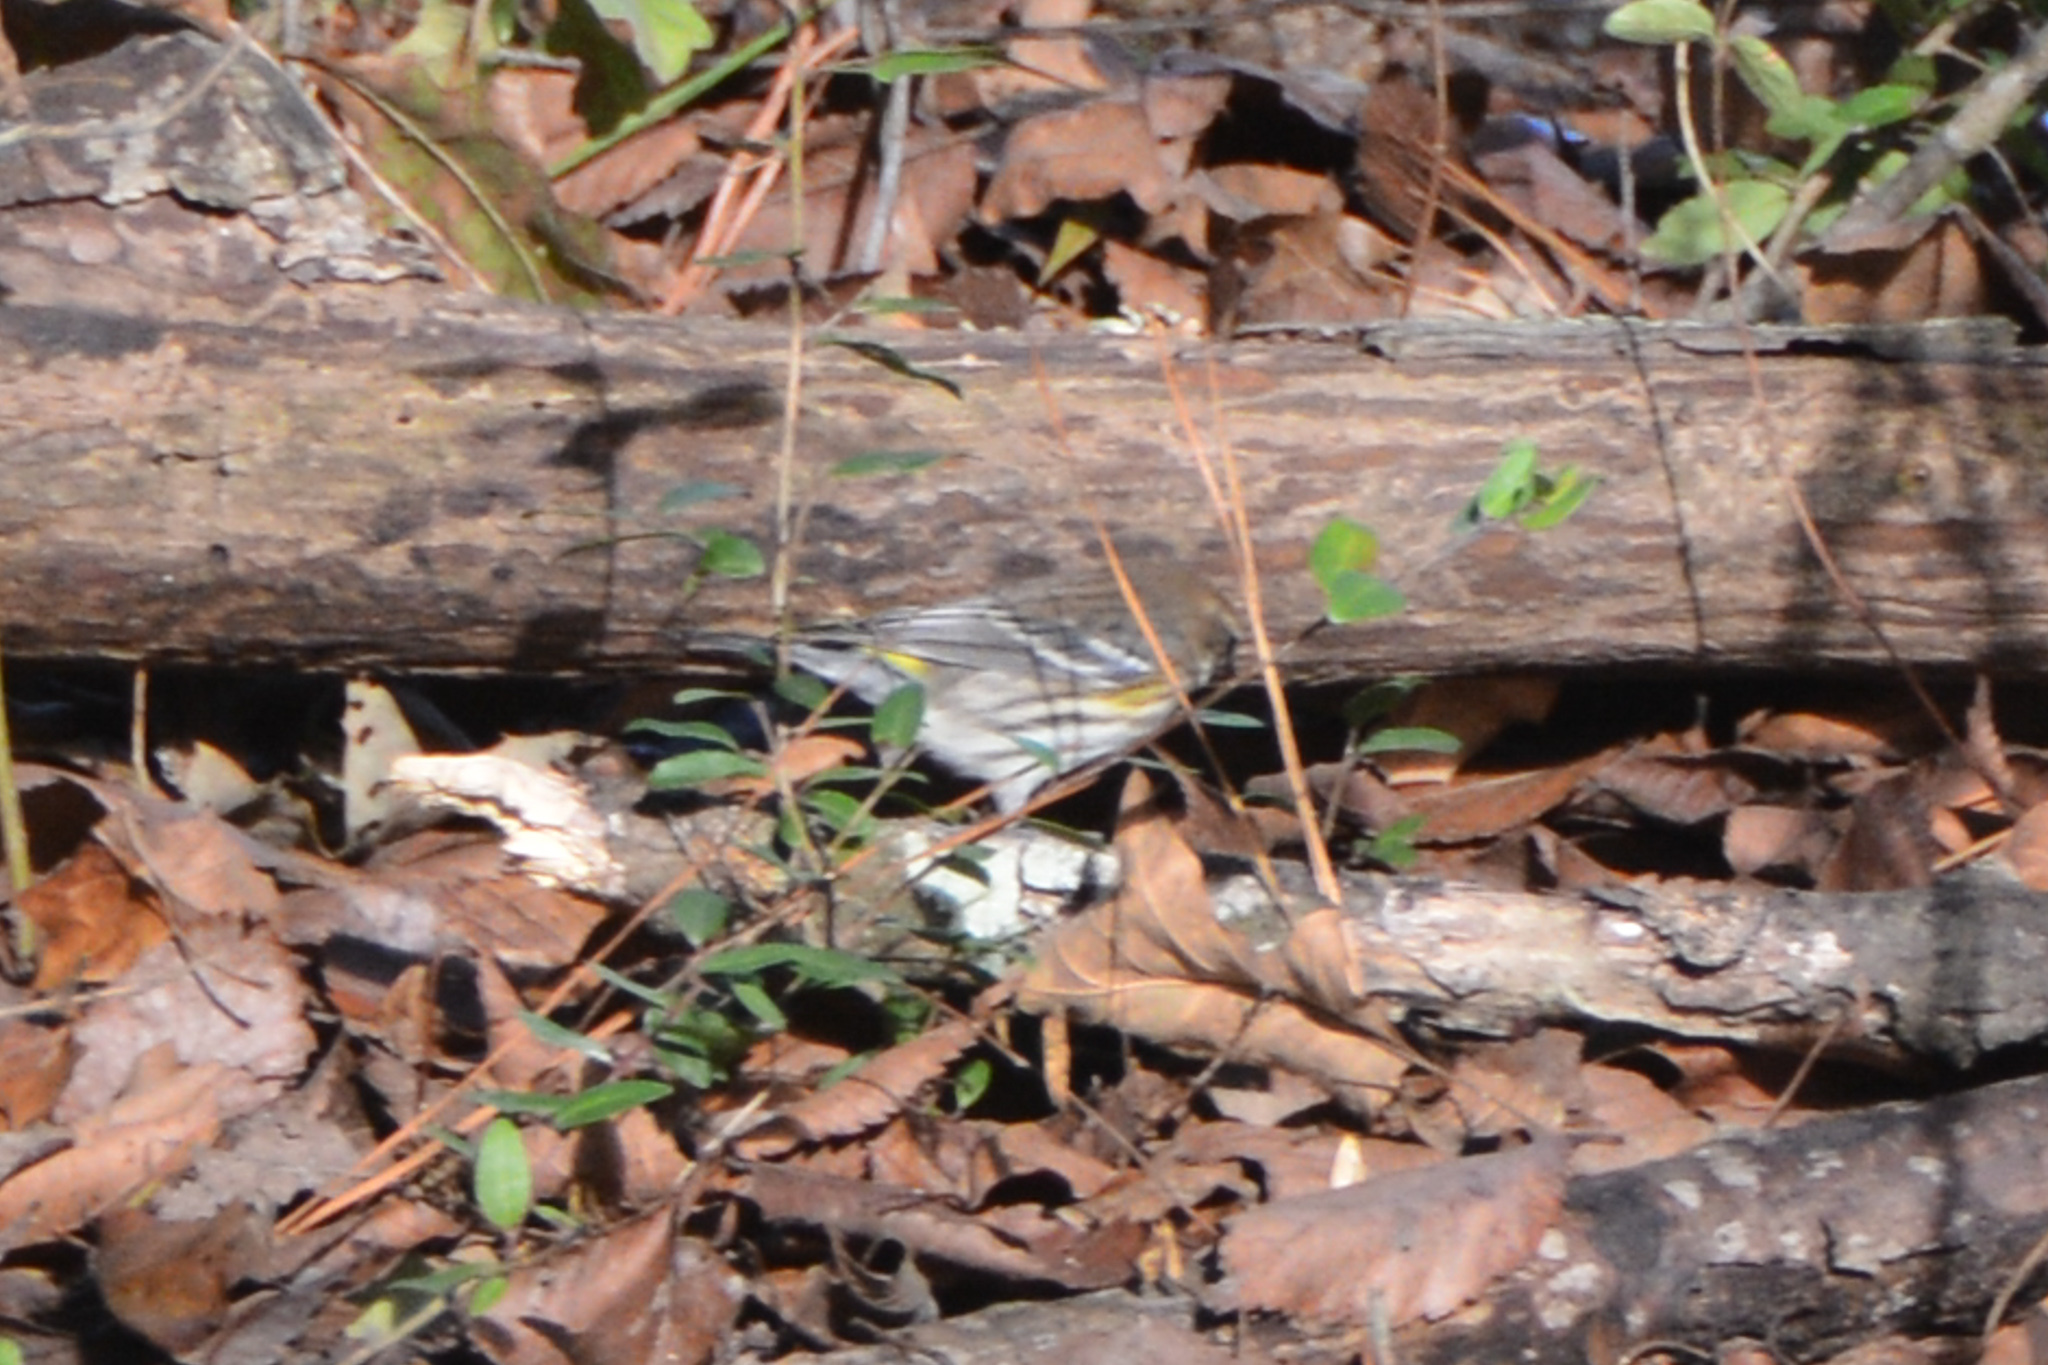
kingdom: Animalia
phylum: Chordata
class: Aves
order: Passeriformes
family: Parulidae
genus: Setophaga
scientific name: Setophaga coronata
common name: Myrtle warbler
